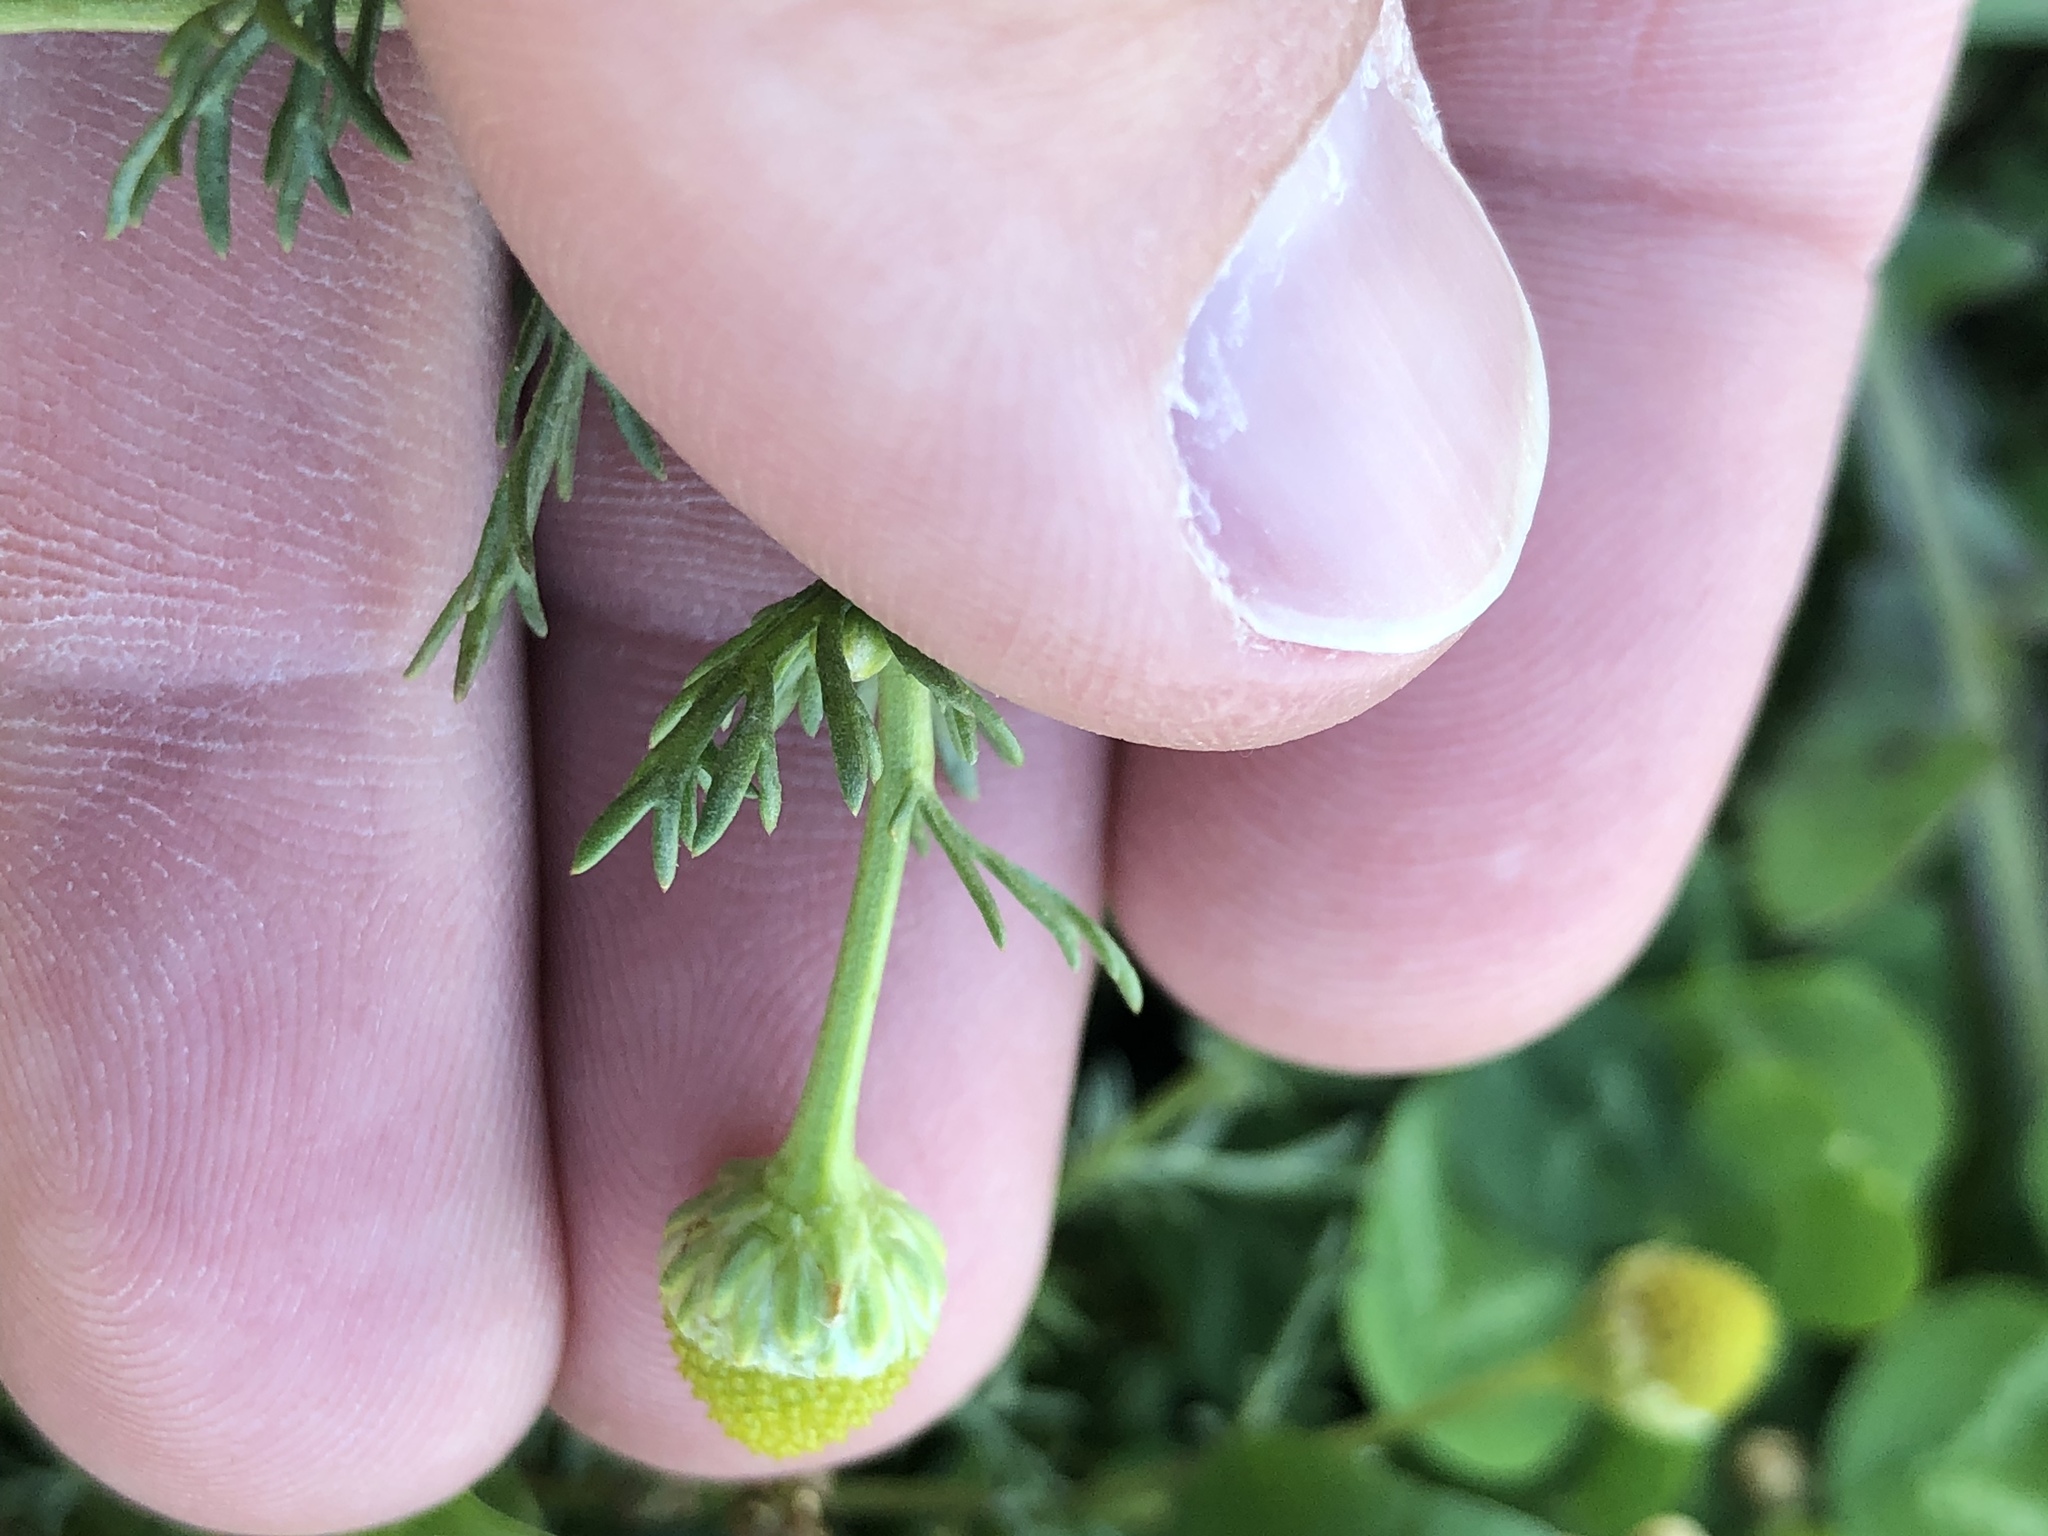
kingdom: Plantae
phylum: Tracheophyta
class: Magnoliopsida
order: Asterales
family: Asteraceae
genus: Matricaria
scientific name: Matricaria discoidea
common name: Disc mayweed
